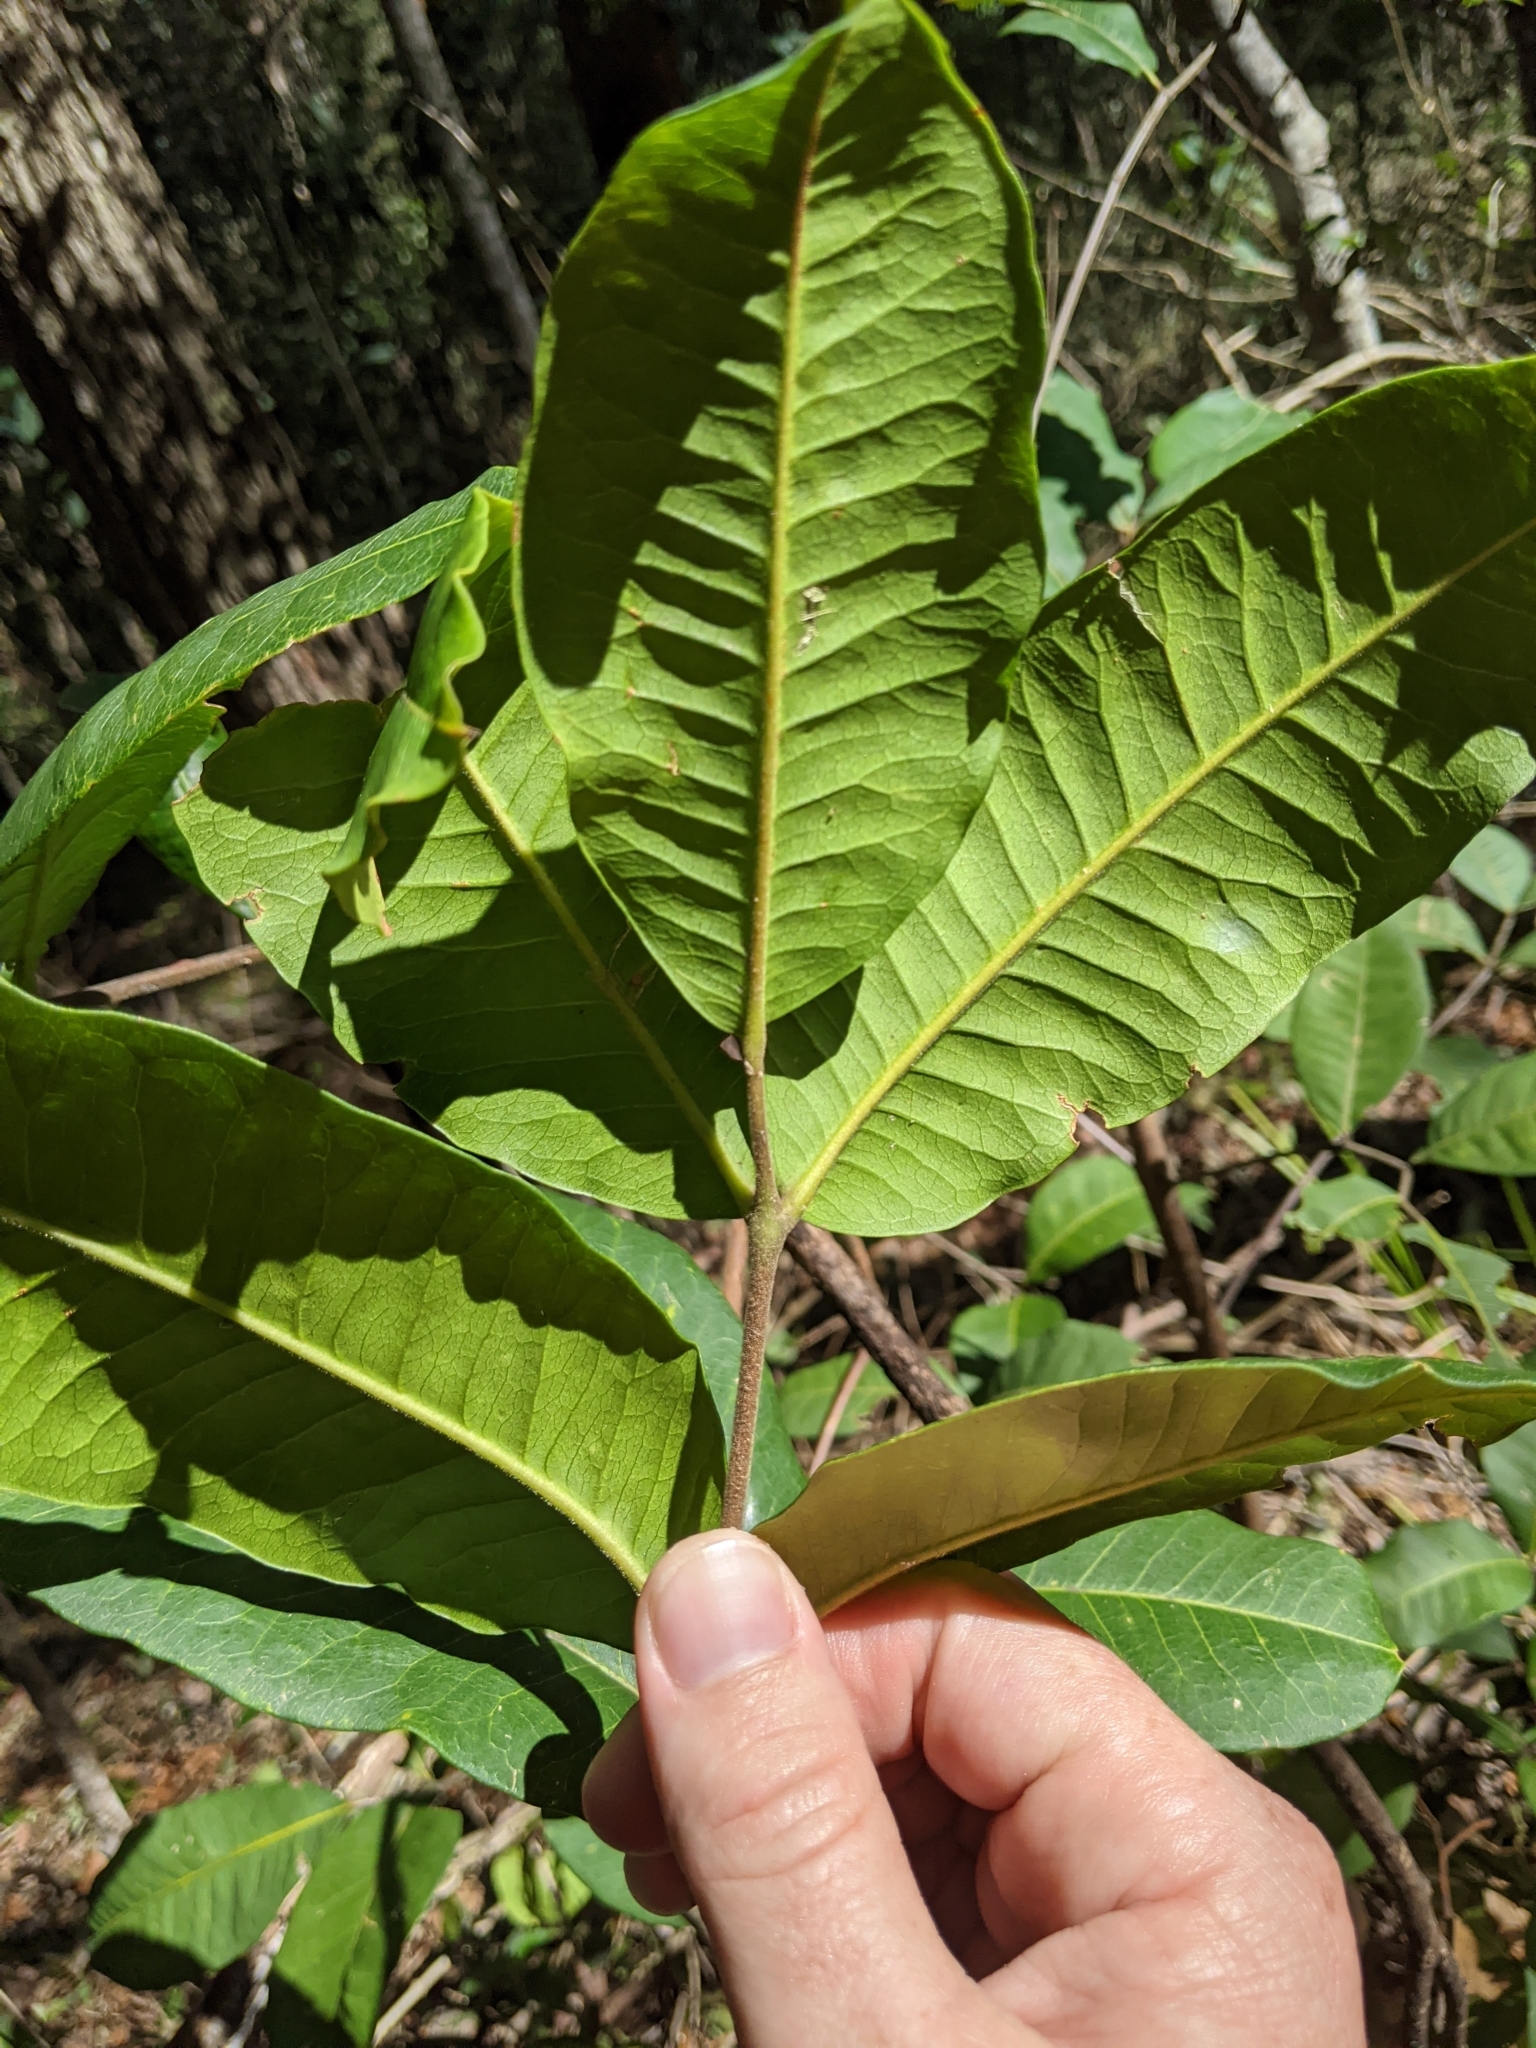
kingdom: Plantae
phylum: Tracheophyta
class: Magnoliopsida
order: Sapindales
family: Rutaceae
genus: Flindersia
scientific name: Flindersia bennettii
